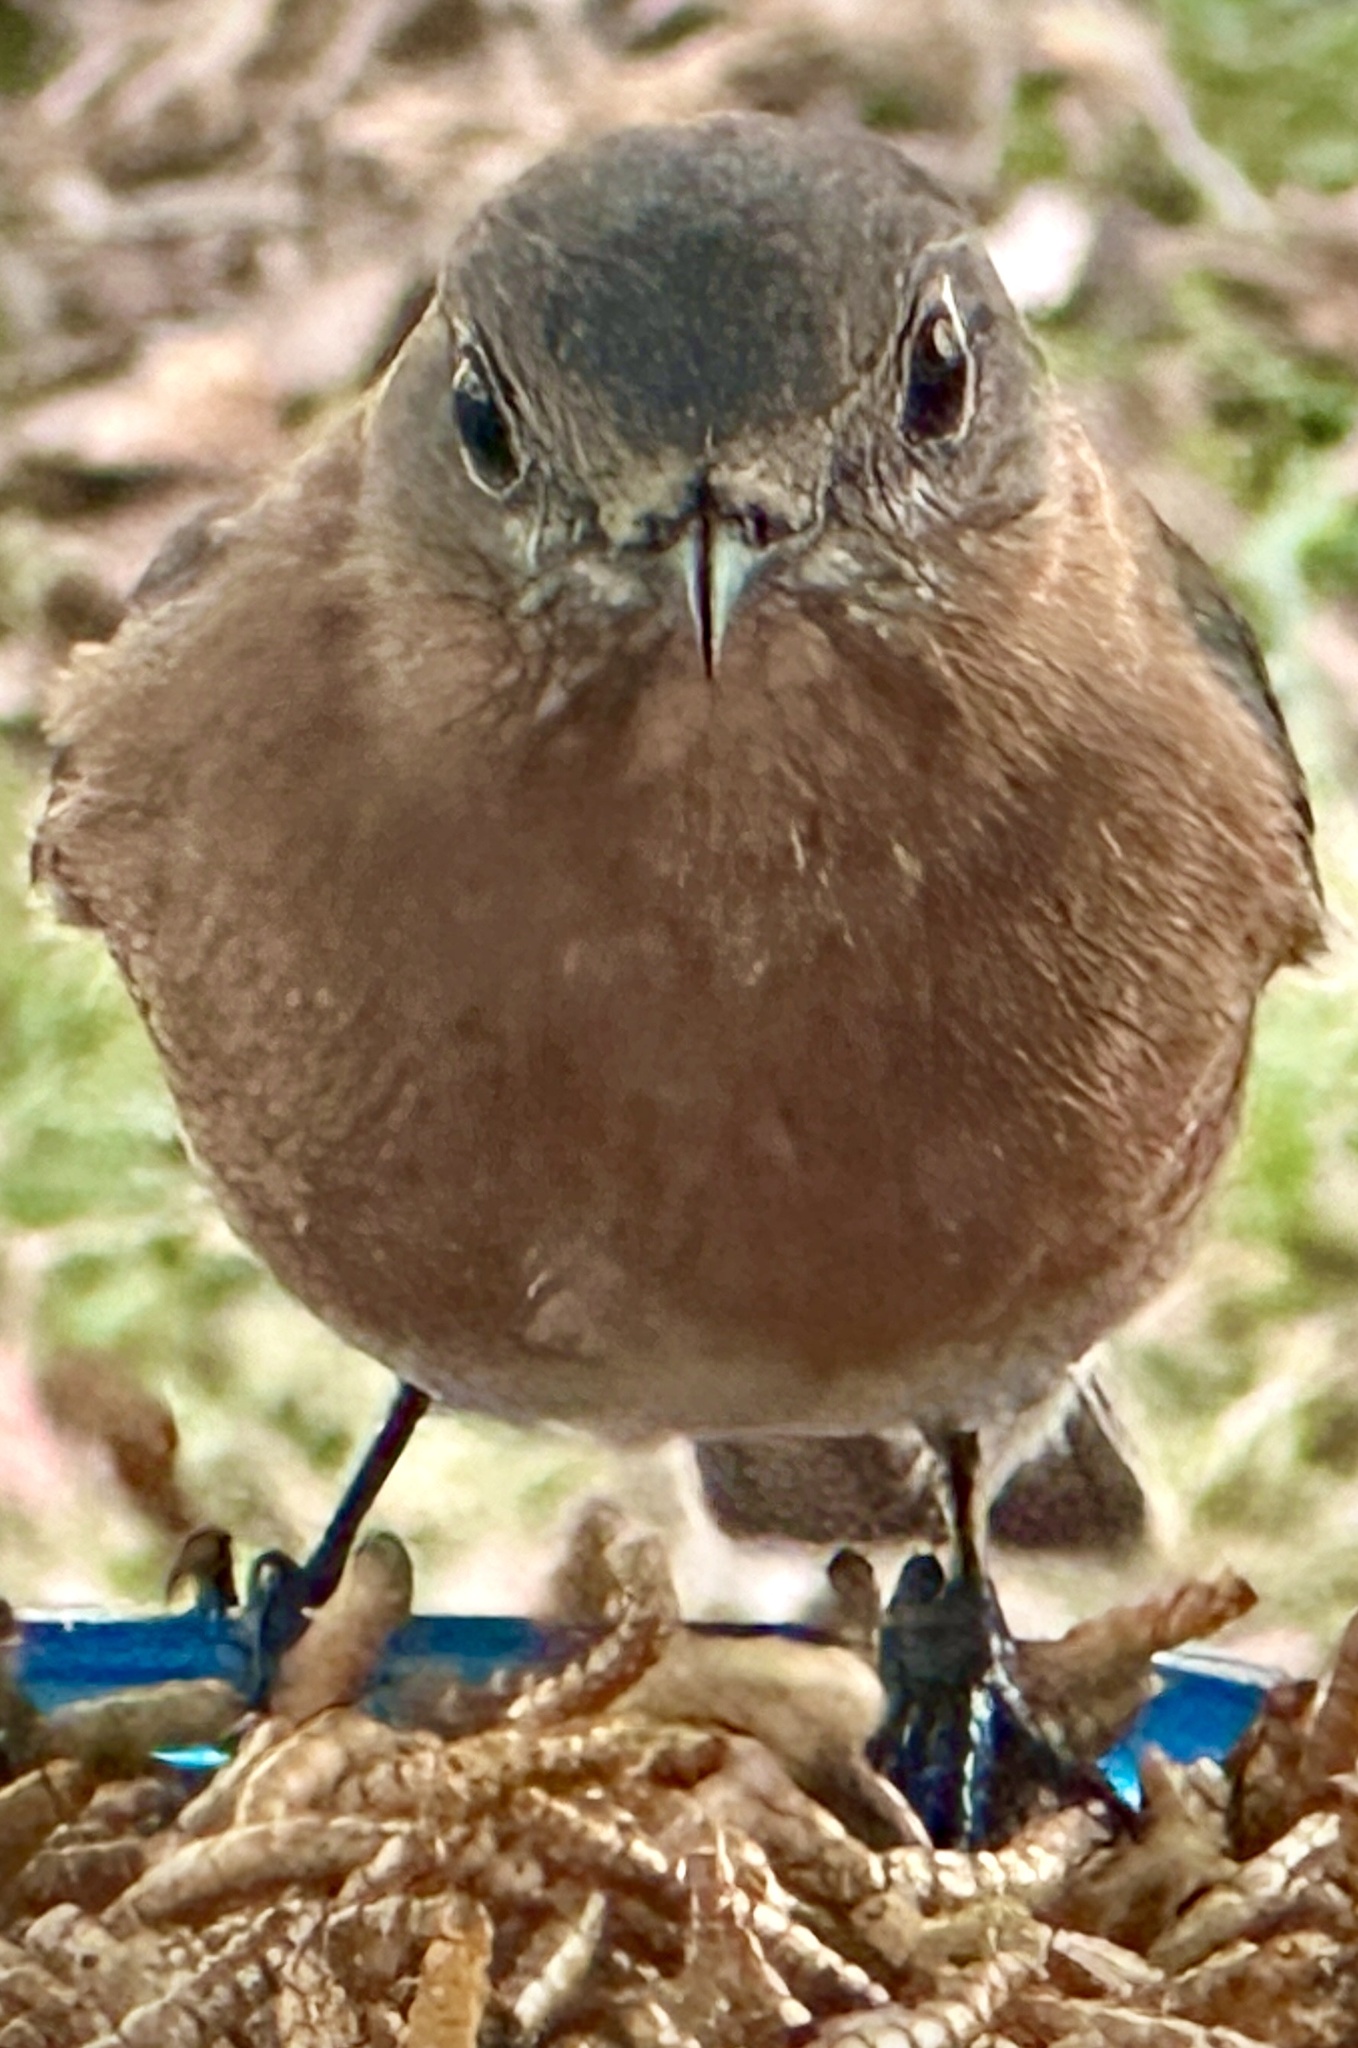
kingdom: Animalia
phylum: Chordata
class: Aves
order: Passeriformes
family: Turdidae
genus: Sialia
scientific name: Sialia sialis
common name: Eastern bluebird
